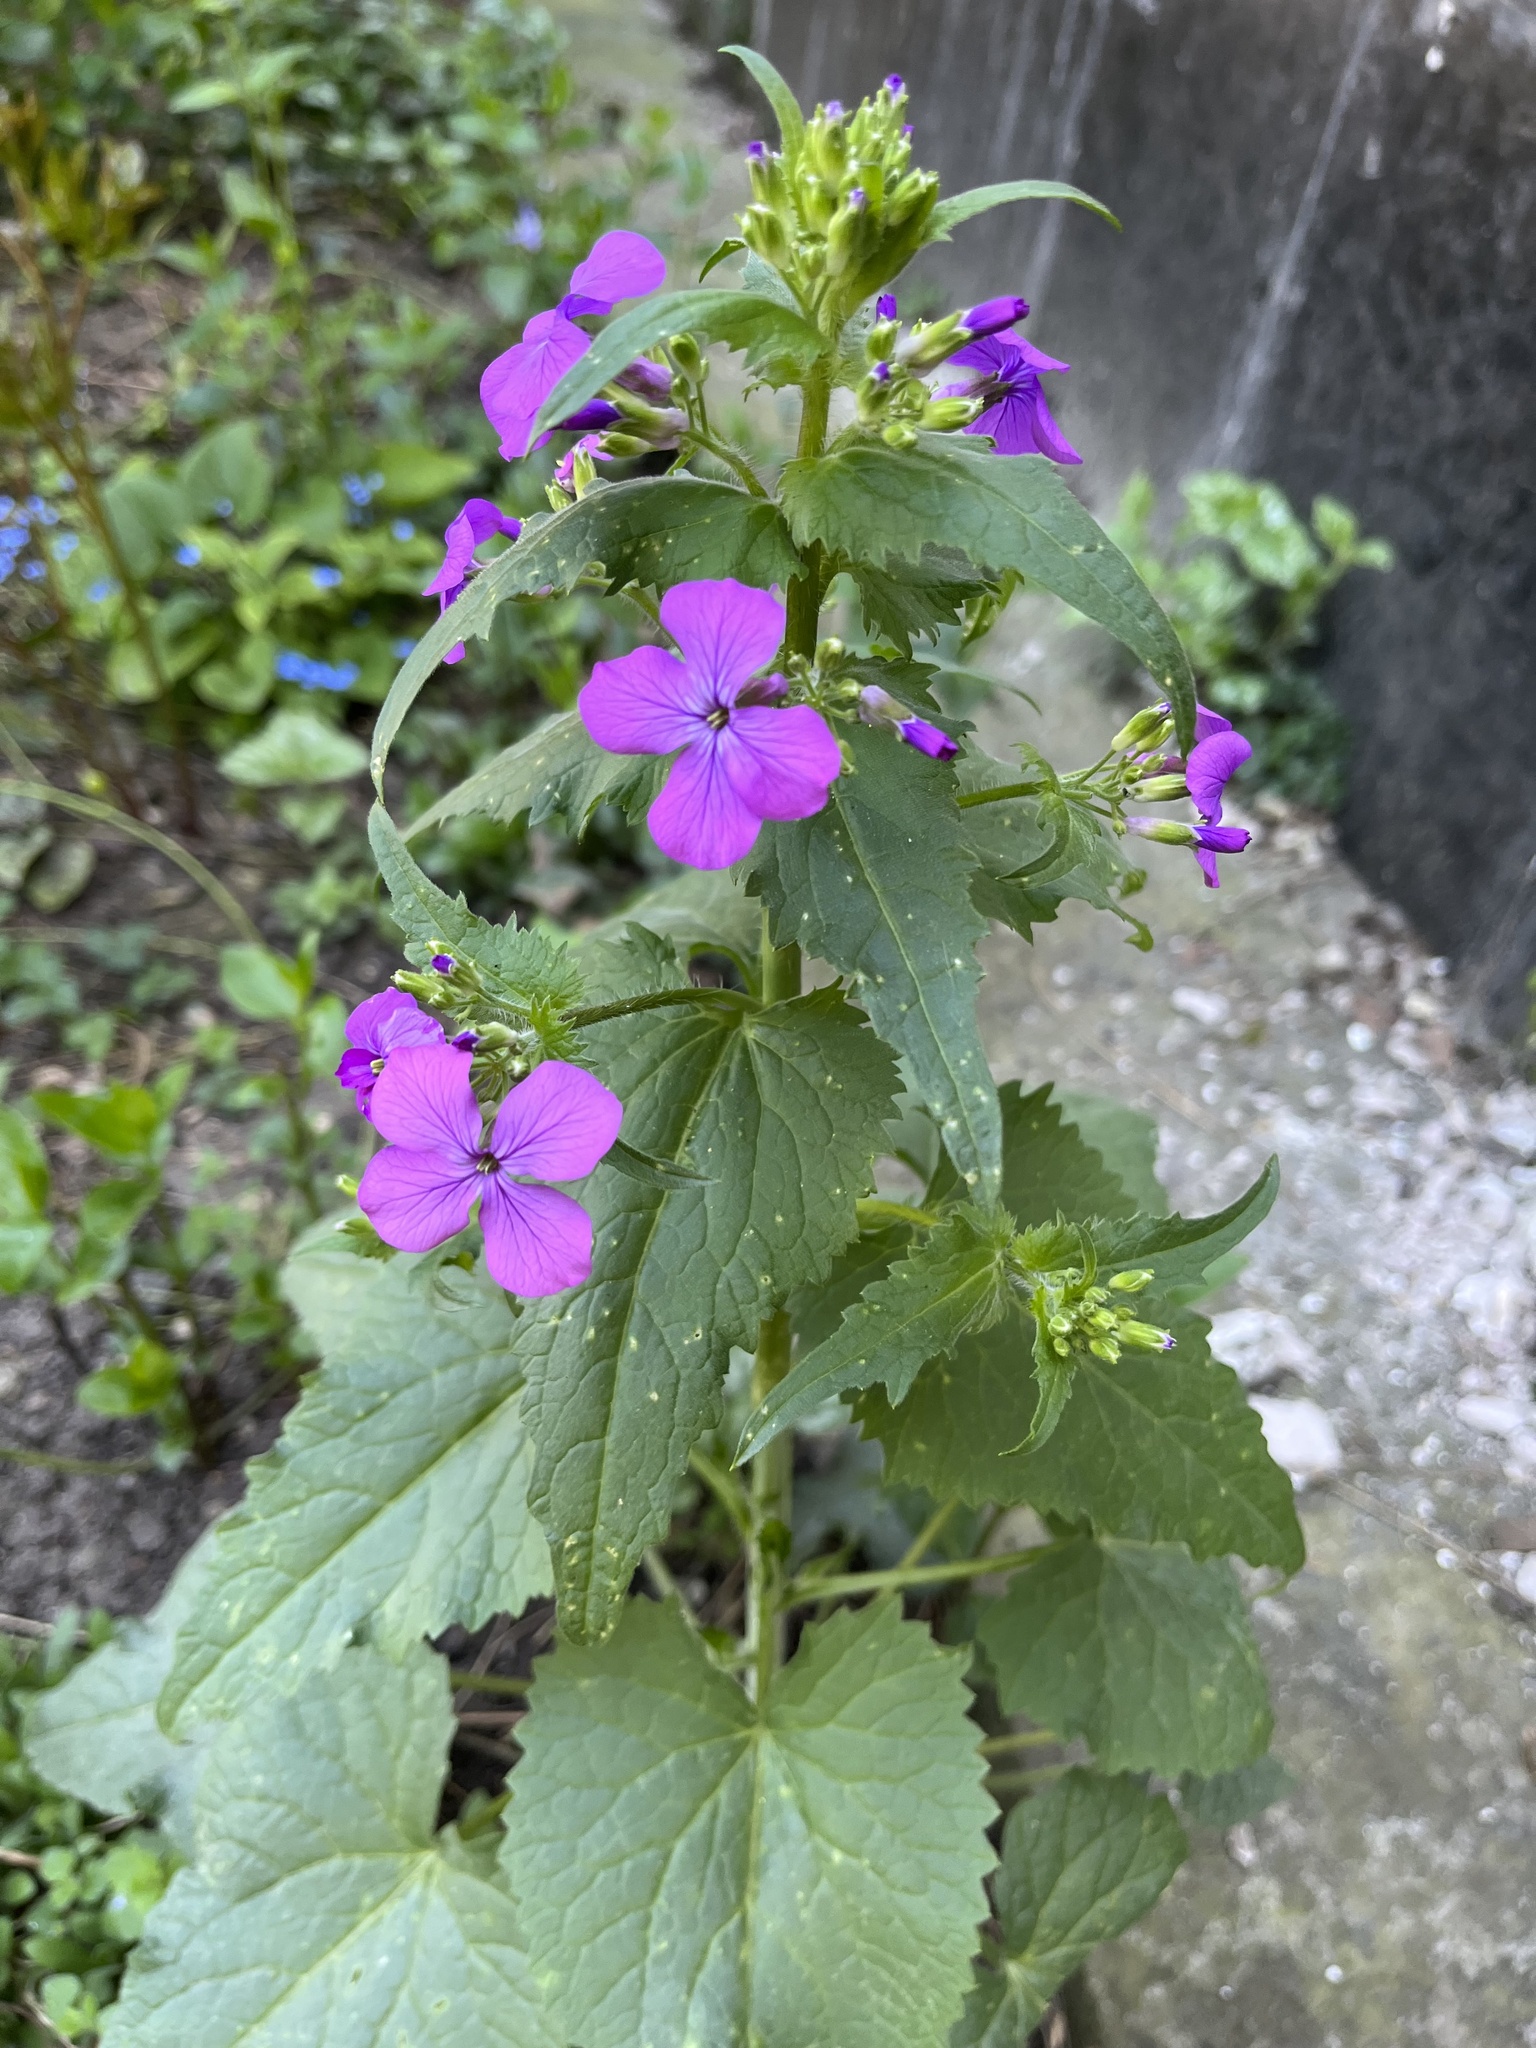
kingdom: Plantae
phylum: Tracheophyta
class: Magnoliopsida
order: Brassicales
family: Brassicaceae
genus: Lunaria
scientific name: Lunaria annua
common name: Honesty
